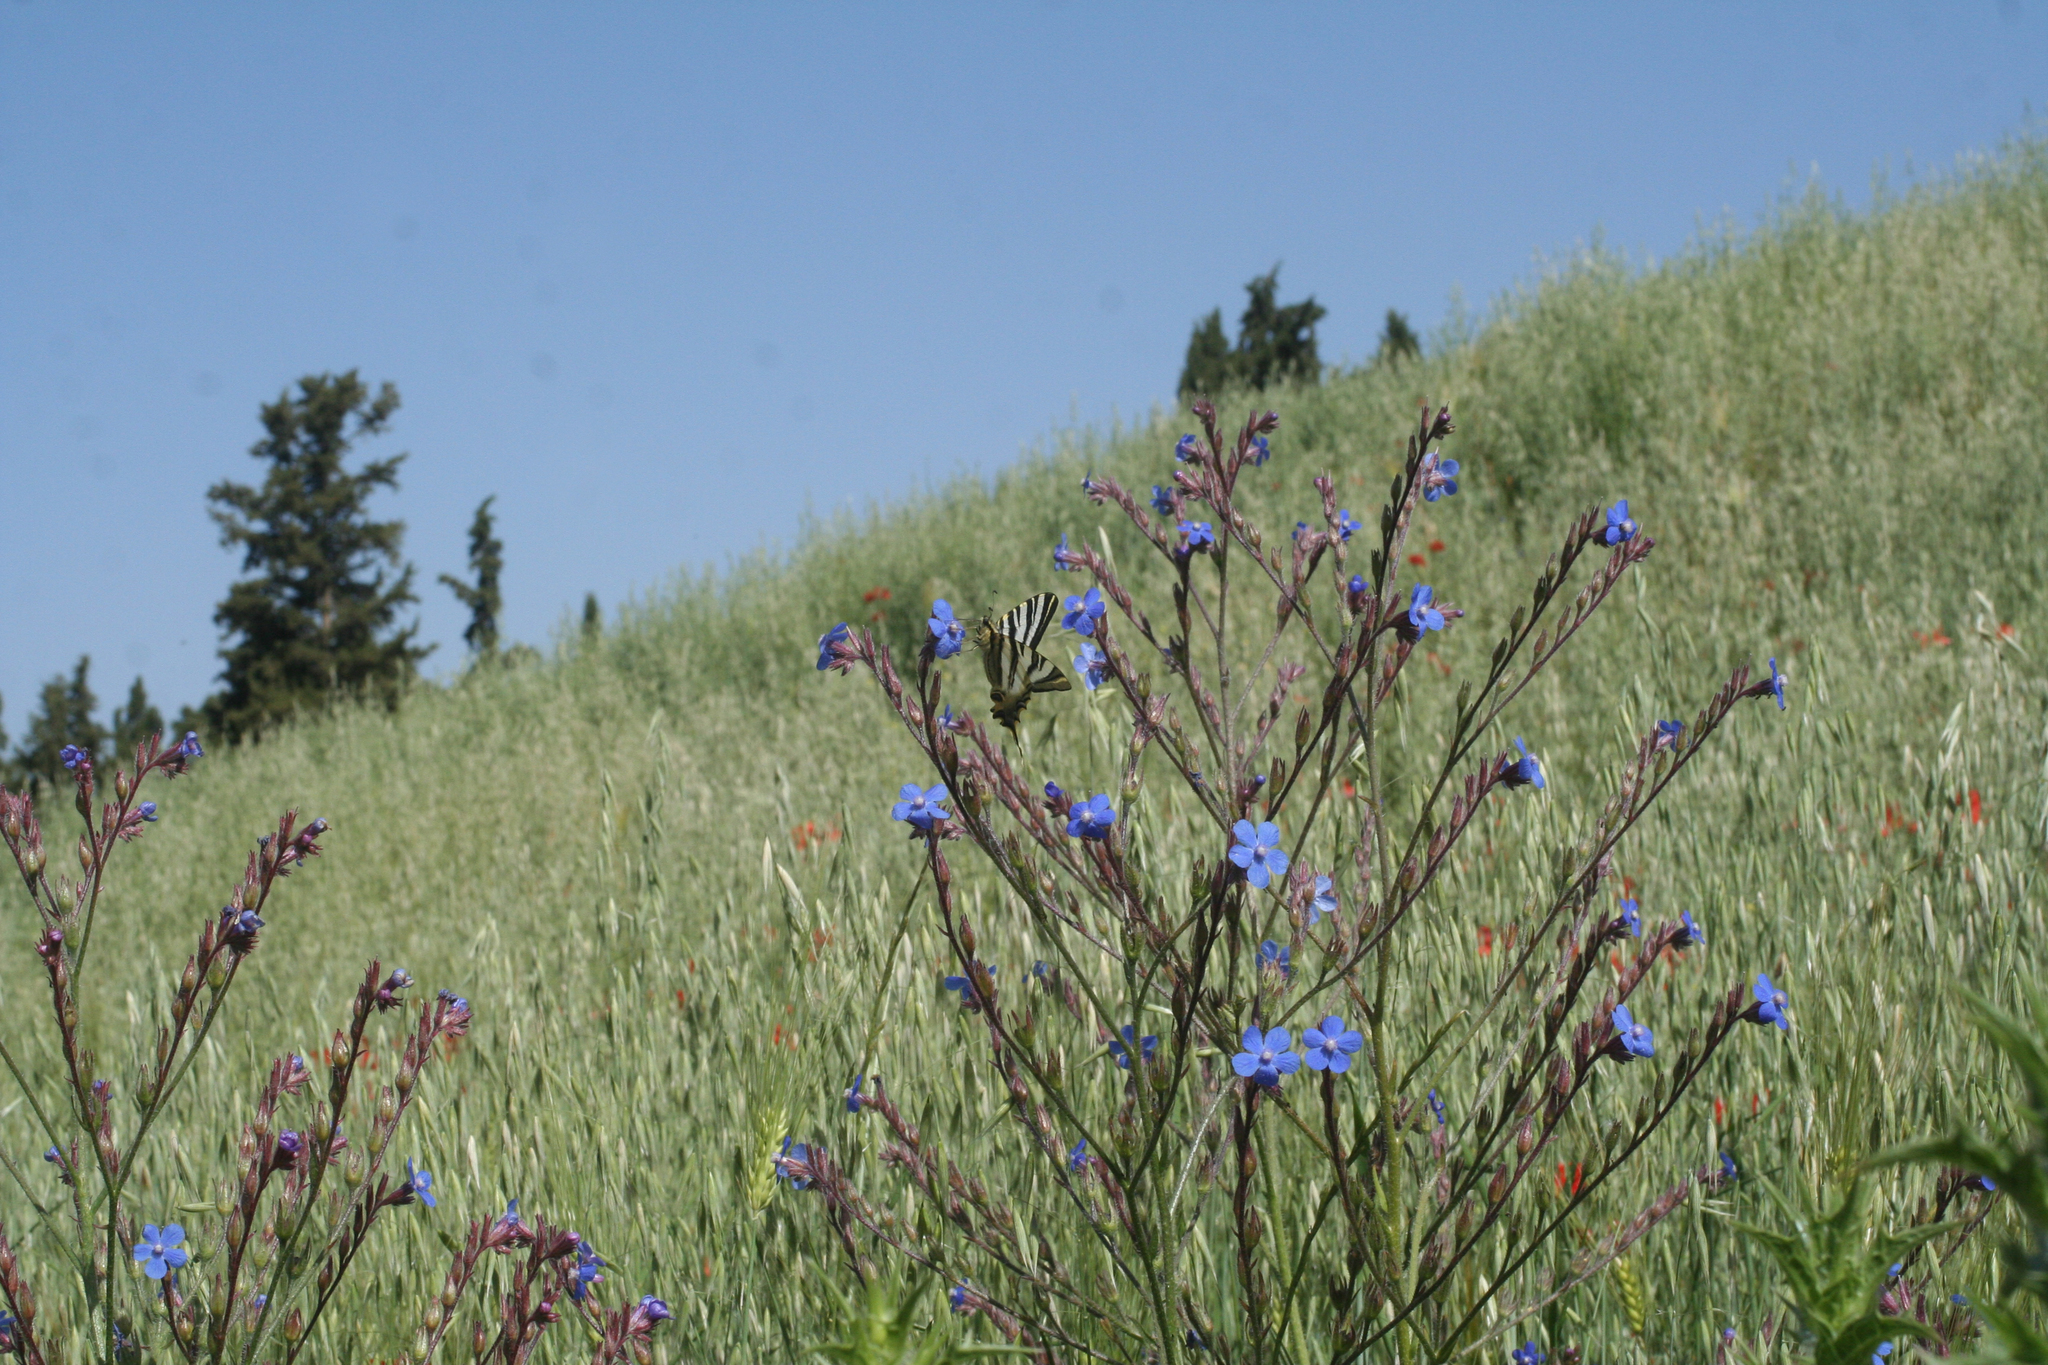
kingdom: Plantae
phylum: Tracheophyta
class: Magnoliopsida
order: Boraginales
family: Boraginaceae
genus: Anchusa
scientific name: Anchusa azurea
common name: Garden anchusa
